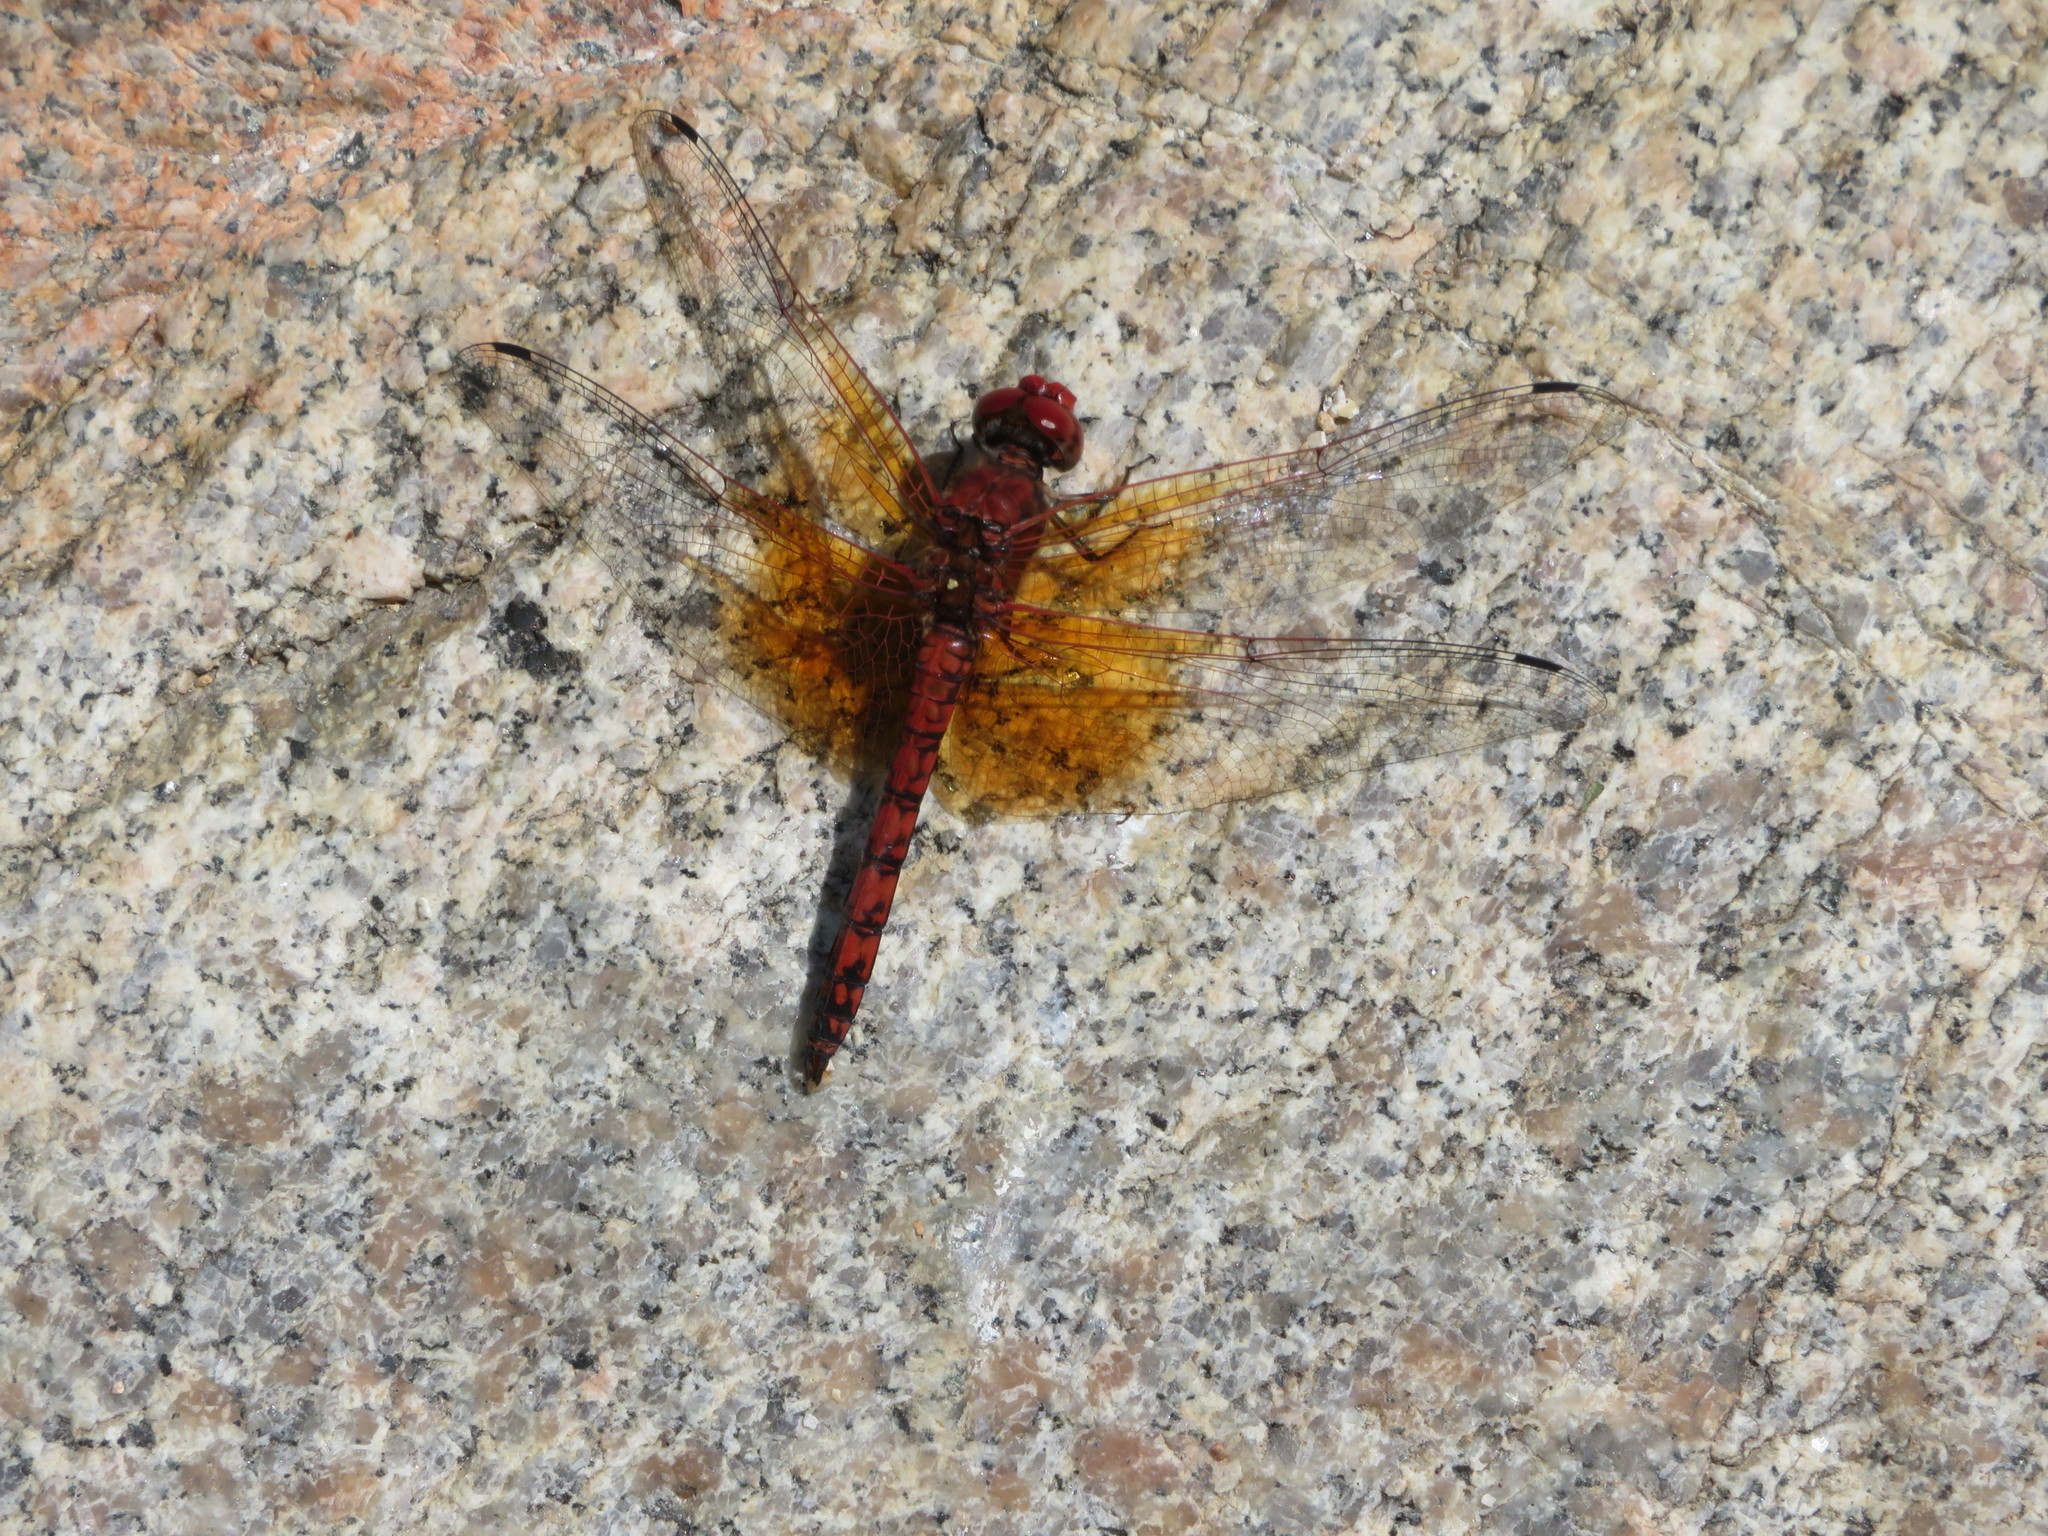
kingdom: Animalia
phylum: Arthropoda
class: Insecta
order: Odonata
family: Libellulidae
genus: Paltothemis
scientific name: Paltothemis lineatipes
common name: Red rock skimmer
